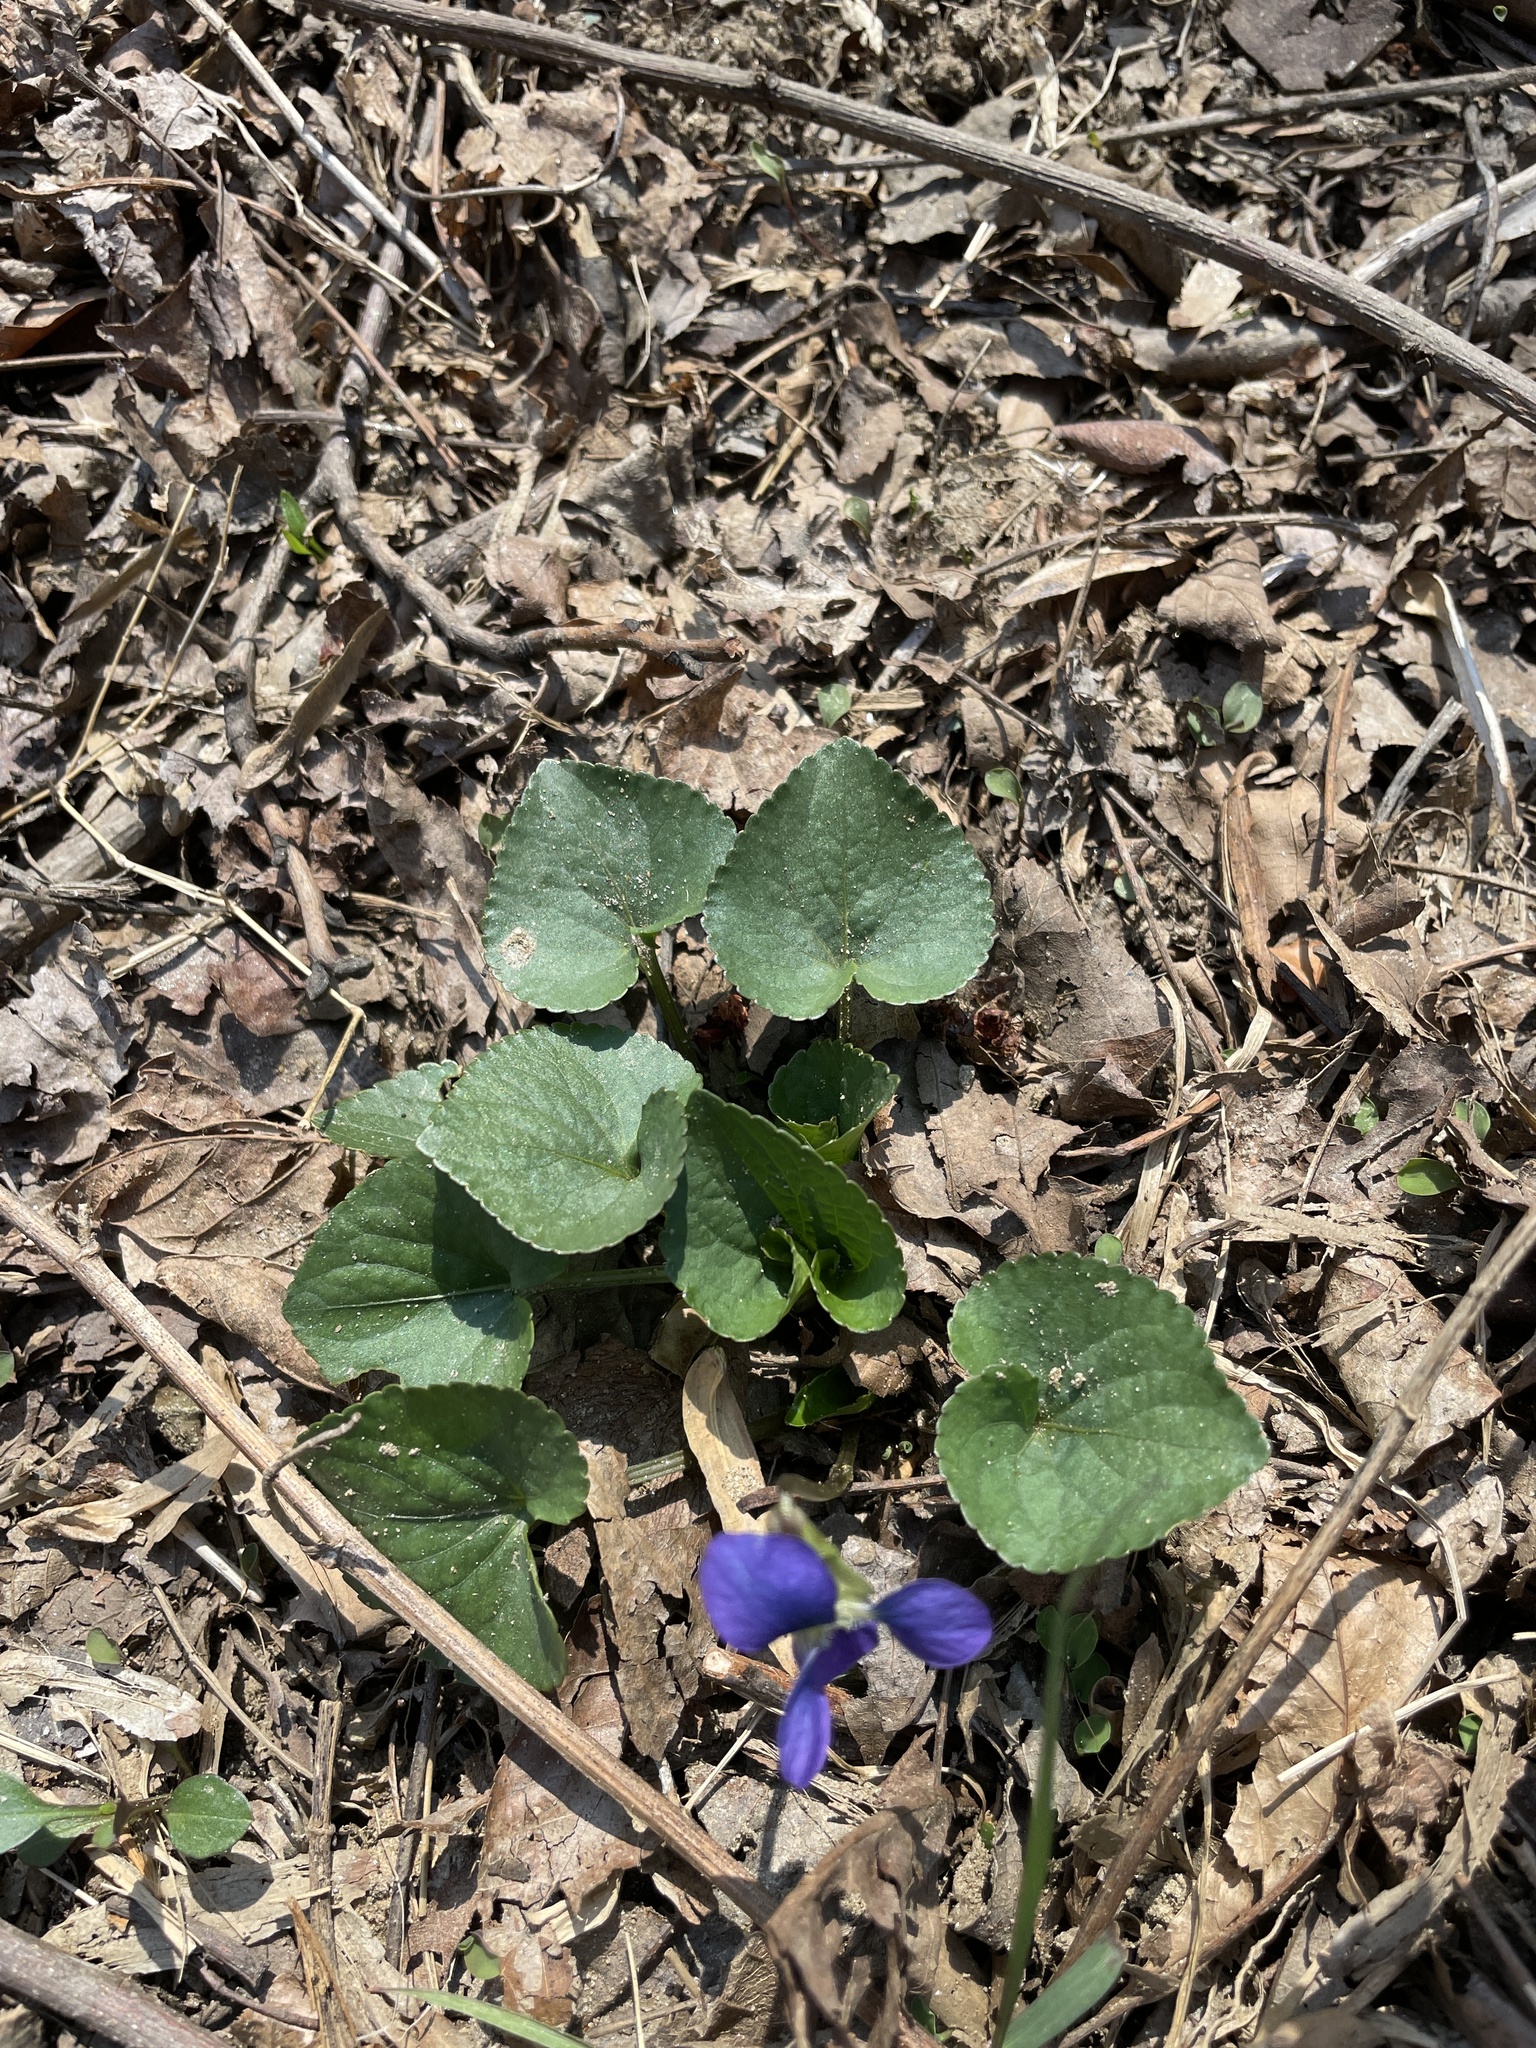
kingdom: Plantae
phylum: Tracheophyta
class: Magnoliopsida
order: Malpighiales
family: Violaceae
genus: Viola
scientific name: Viola sororia
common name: Dooryard violet
